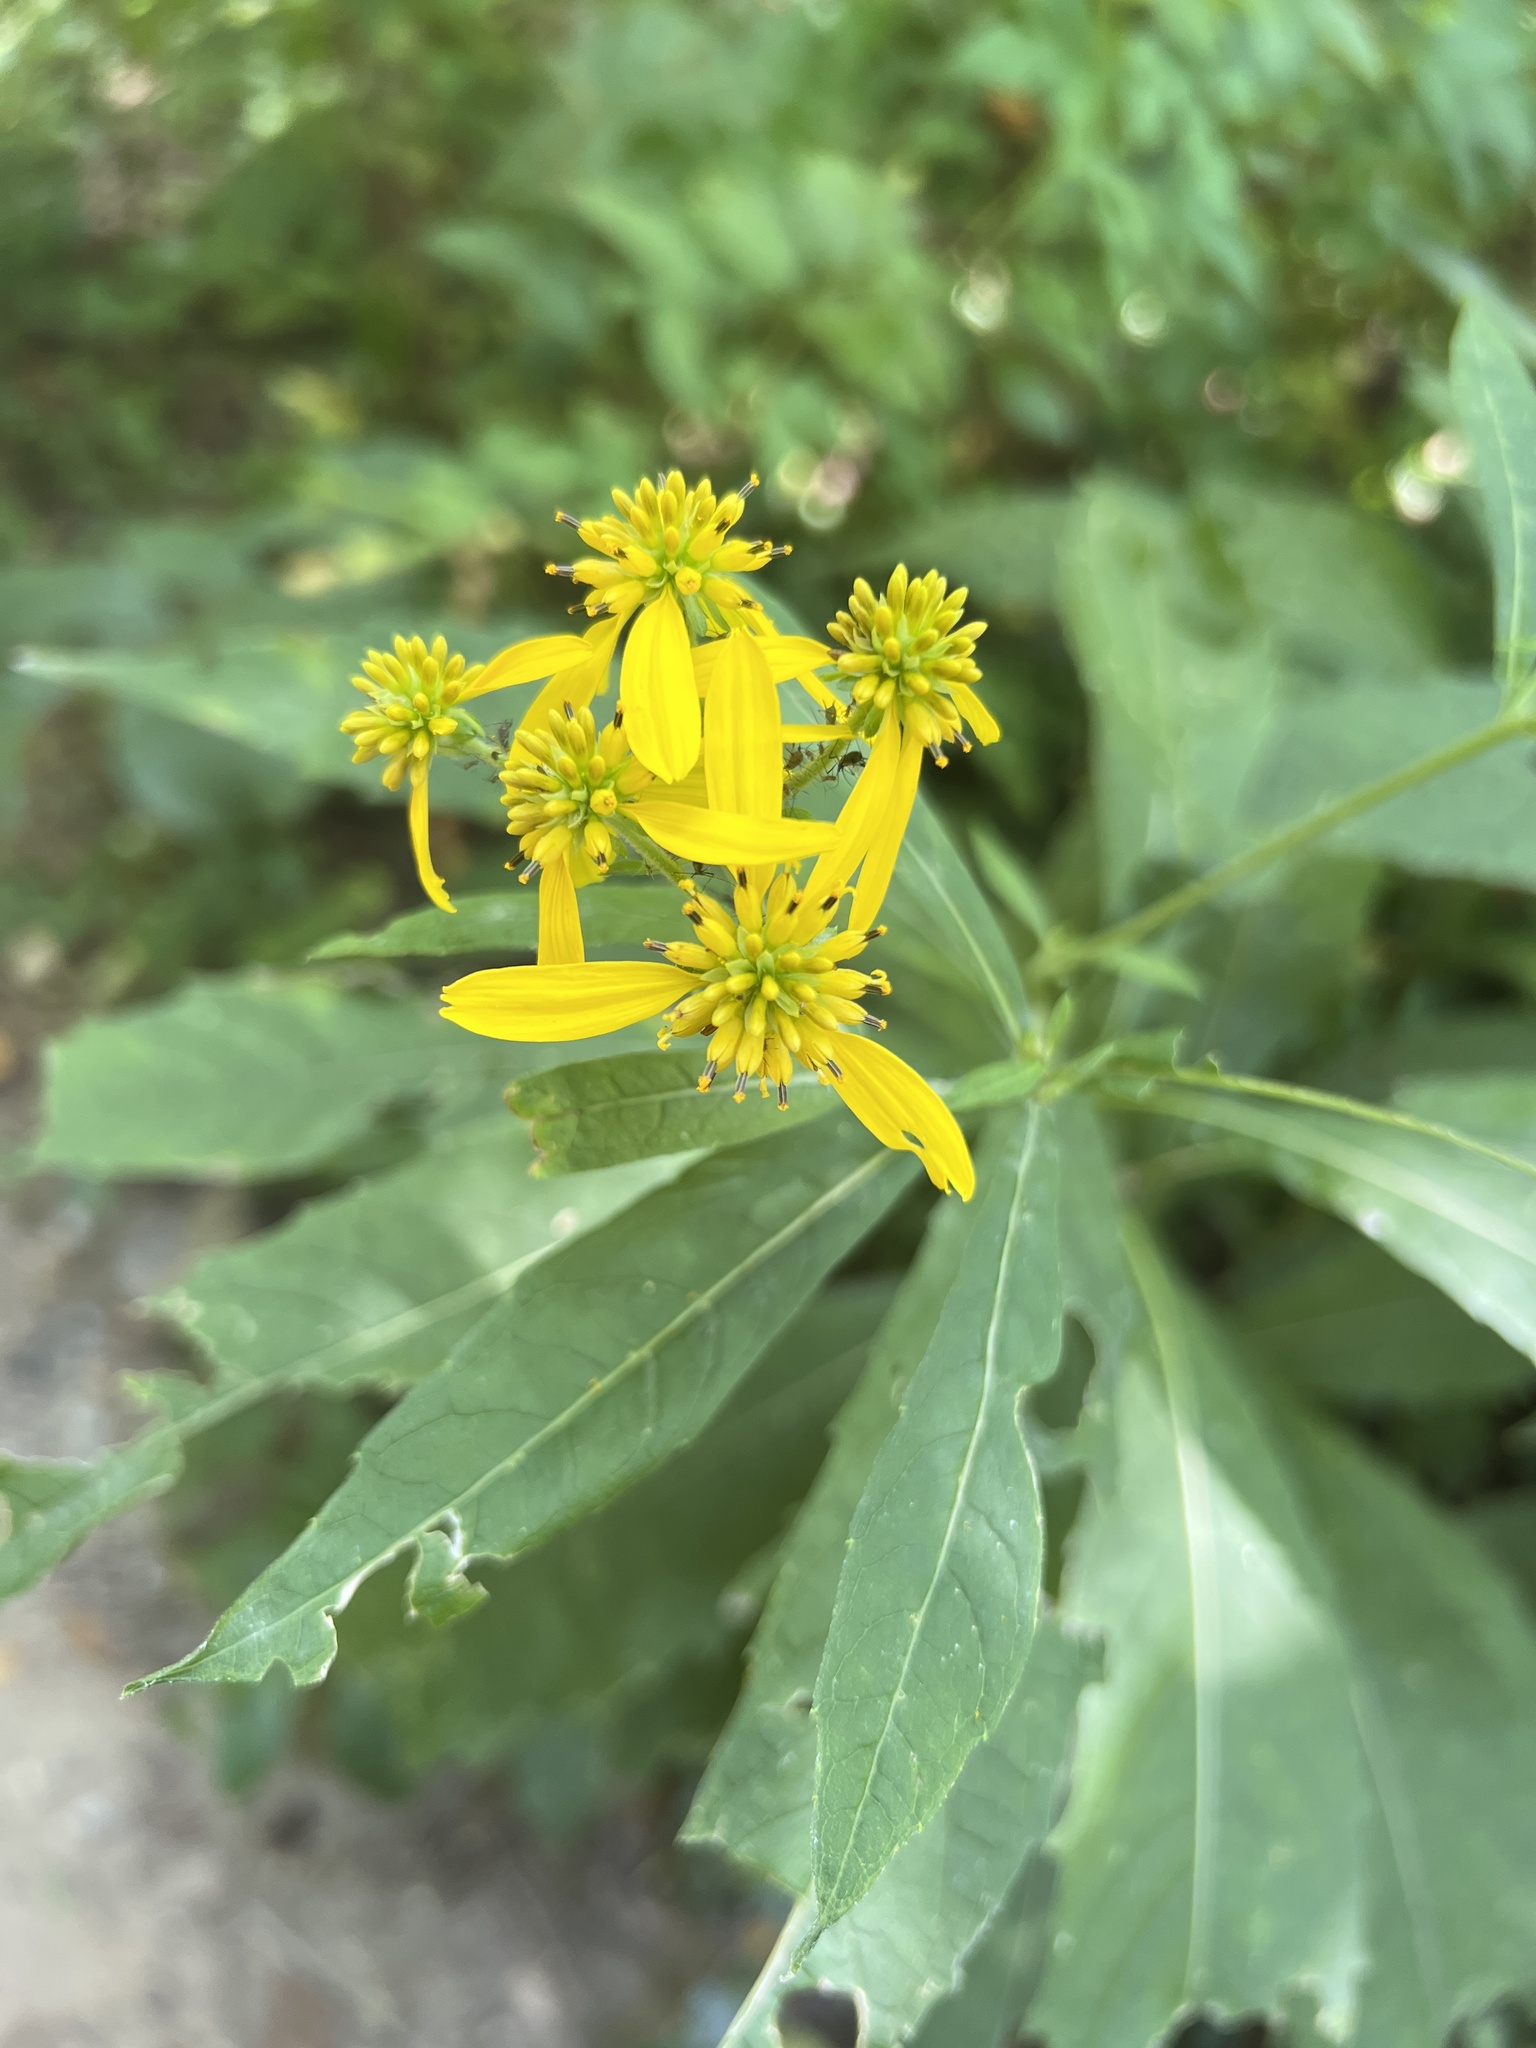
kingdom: Plantae
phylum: Tracheophyta
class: Magnoliopsida
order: Asterales
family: Asteraceae
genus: Verbesina
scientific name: Verbesina alternifolia
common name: Wingstem
